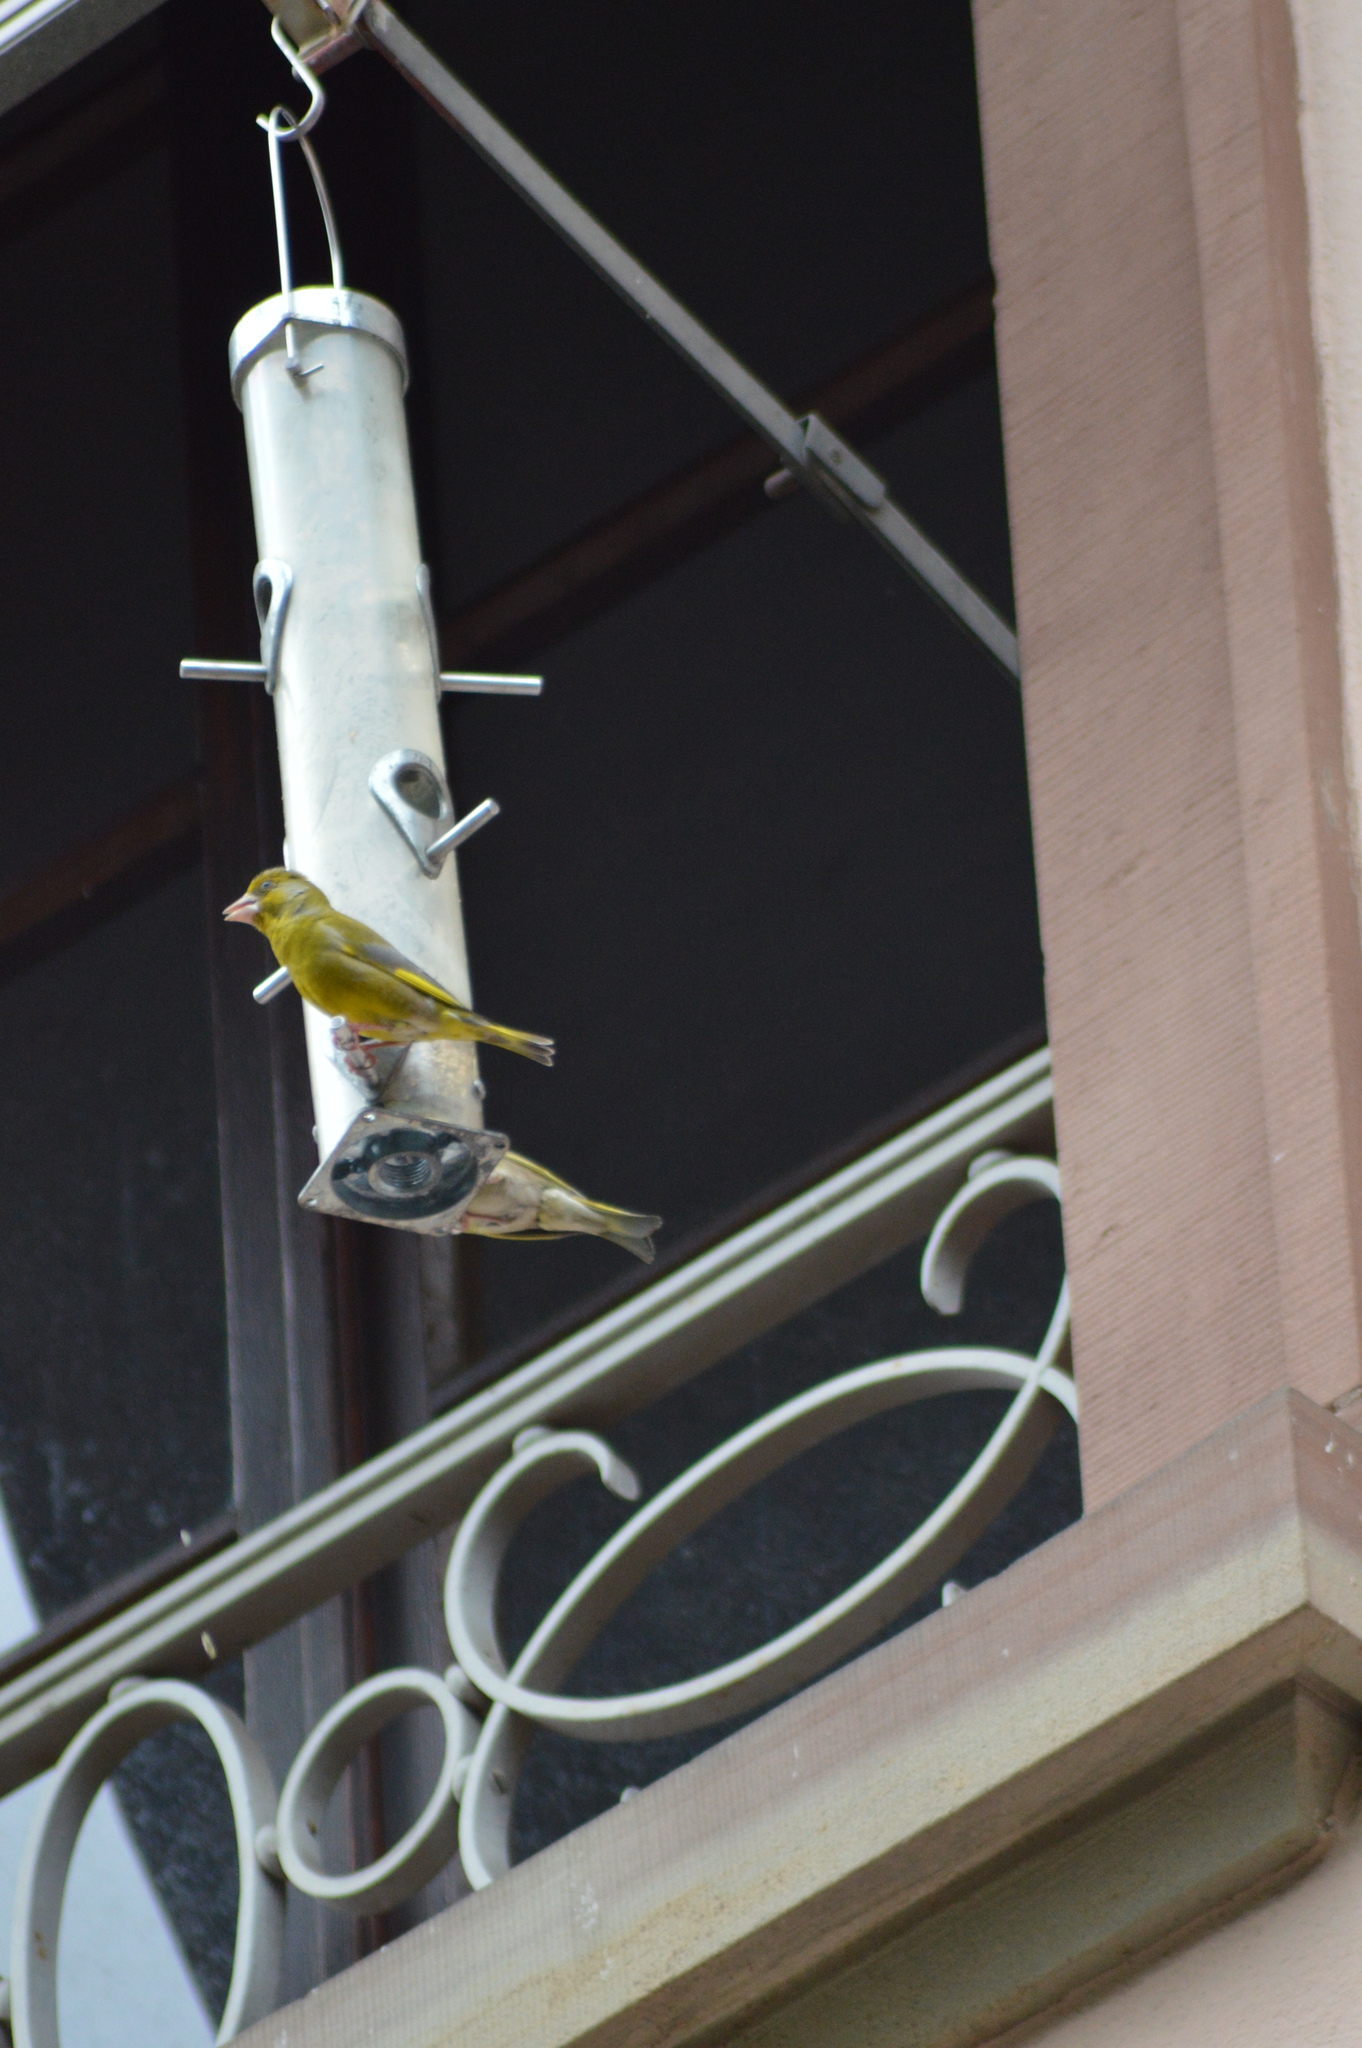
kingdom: Plantae
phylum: Tracheophyta
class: Liliopsida
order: Poales
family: Poaceae
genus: Chloris
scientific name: Chloris chloris
